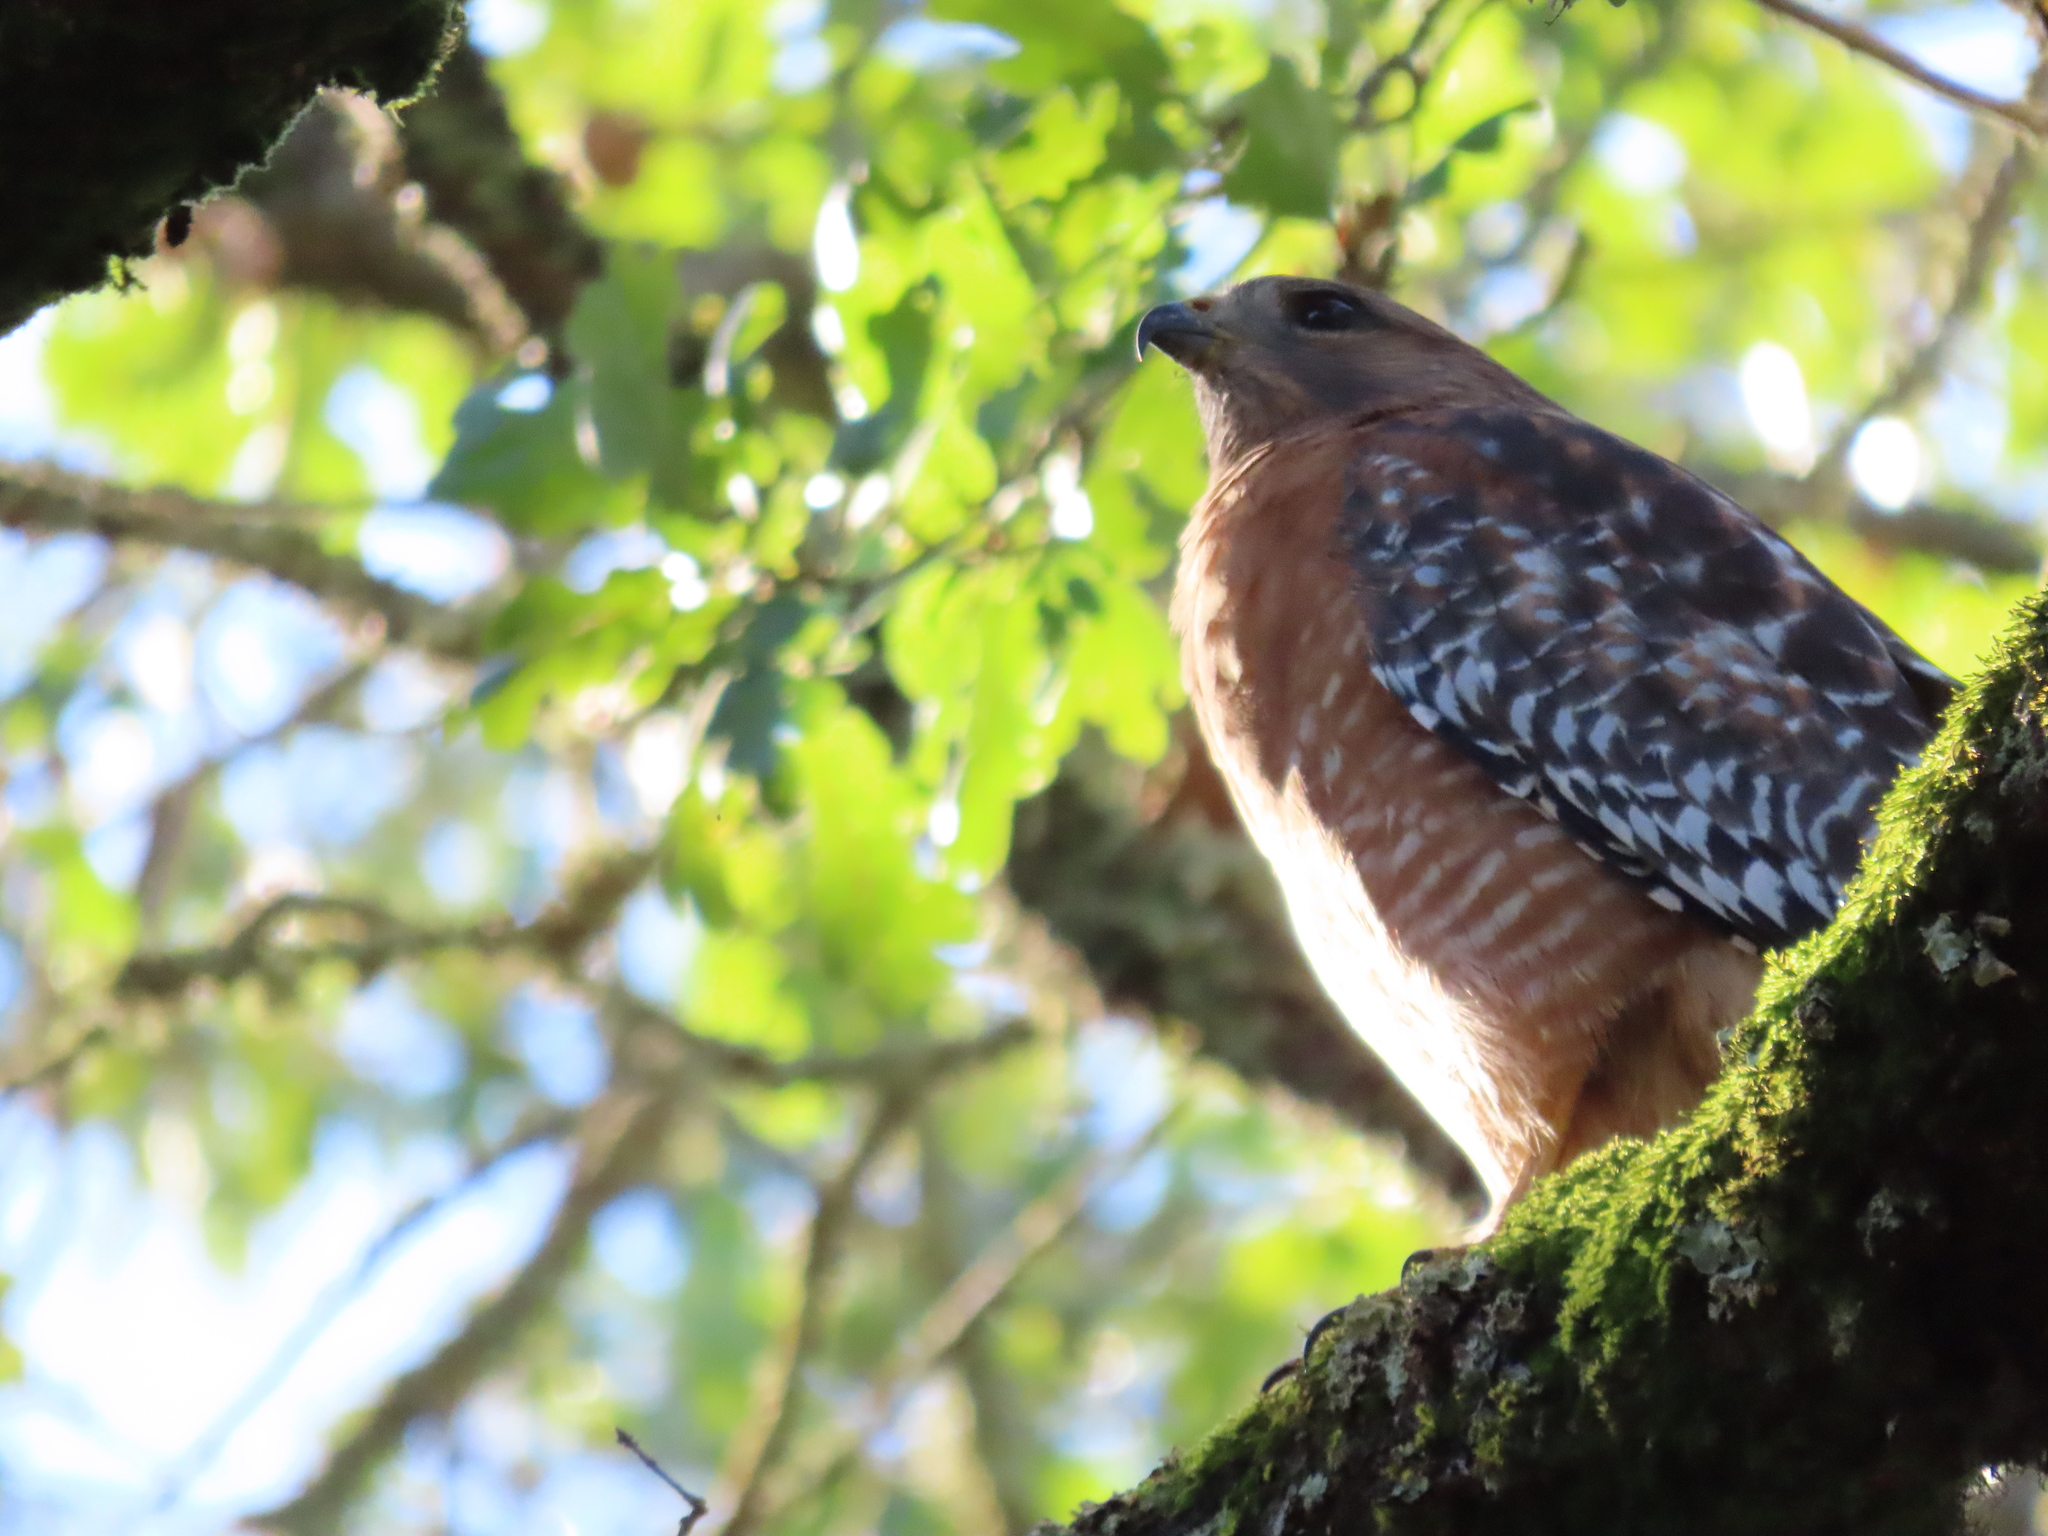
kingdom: Animalia
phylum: Chordata
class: Aves
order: Accipitriformes
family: Accipitridae
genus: Buteo
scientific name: Buteo lineatus
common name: Red-shouldered hawk
